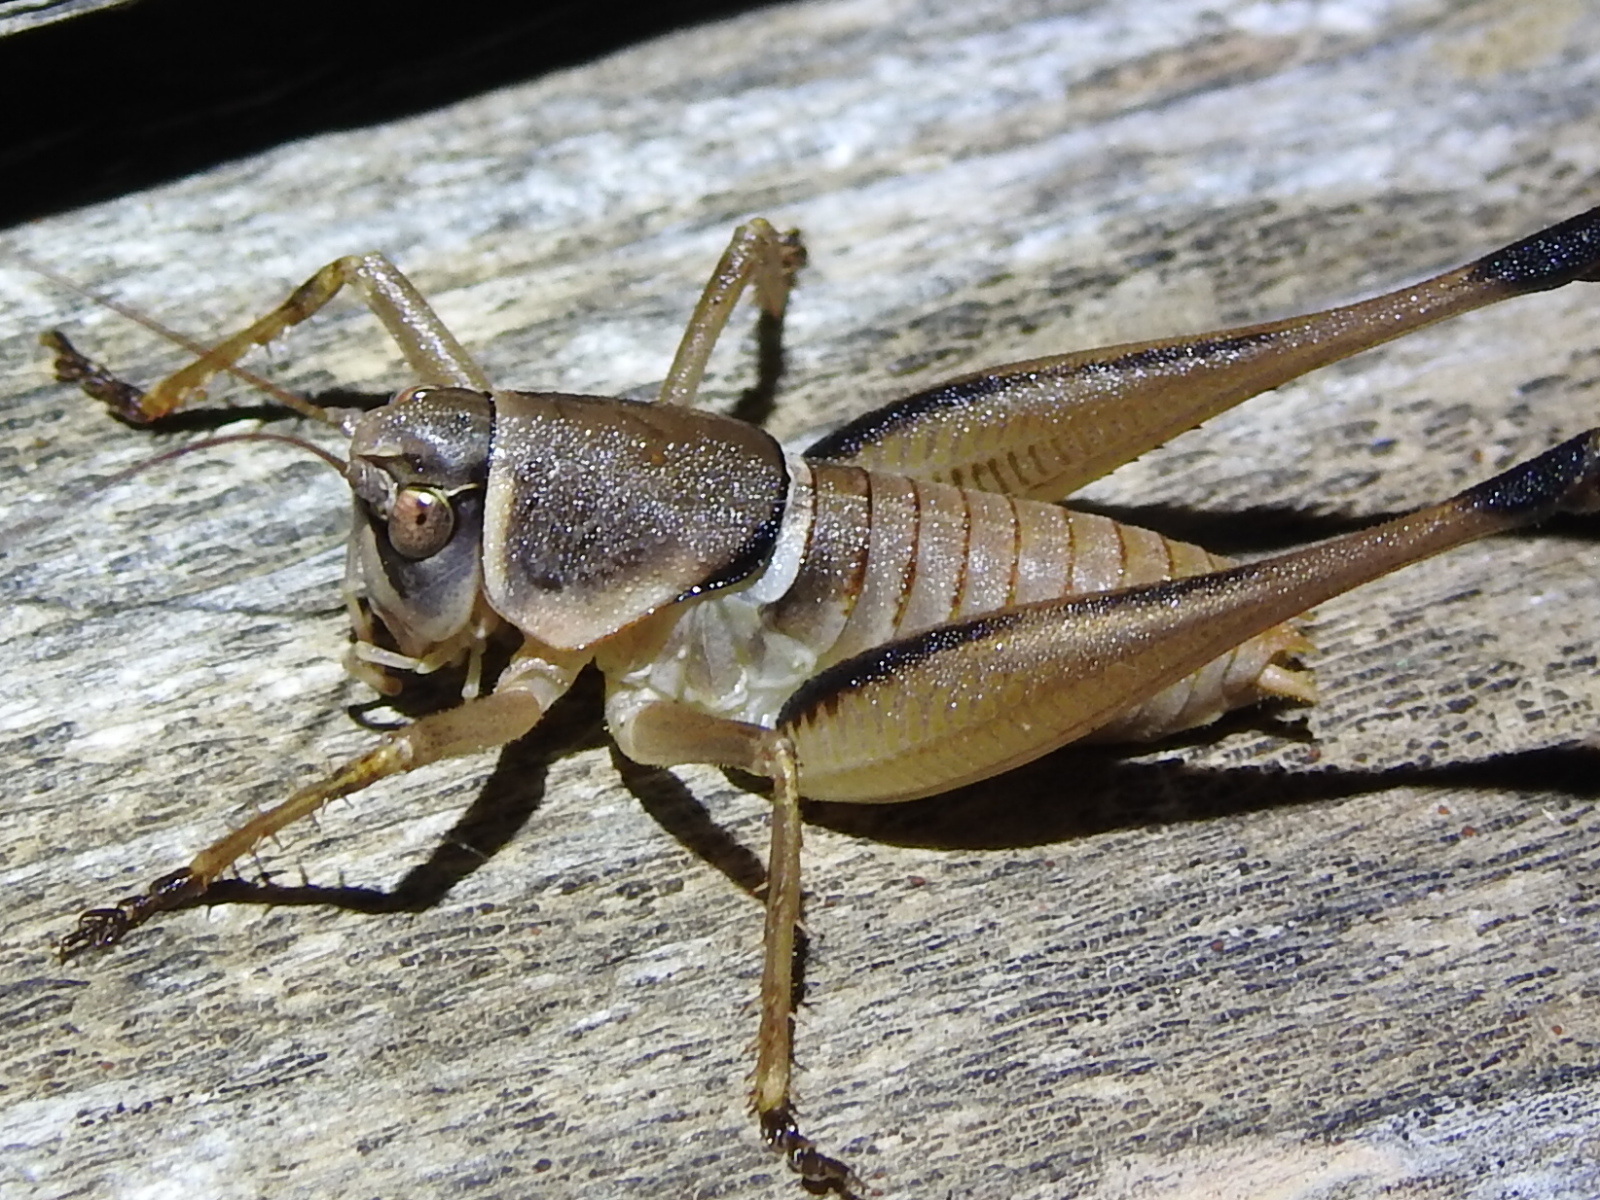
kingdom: Animalia
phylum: Arthropoda
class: Insecta
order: Orthoptera
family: Tettigoniidae
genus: Pediodectes
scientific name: Pediodectes bruneri
